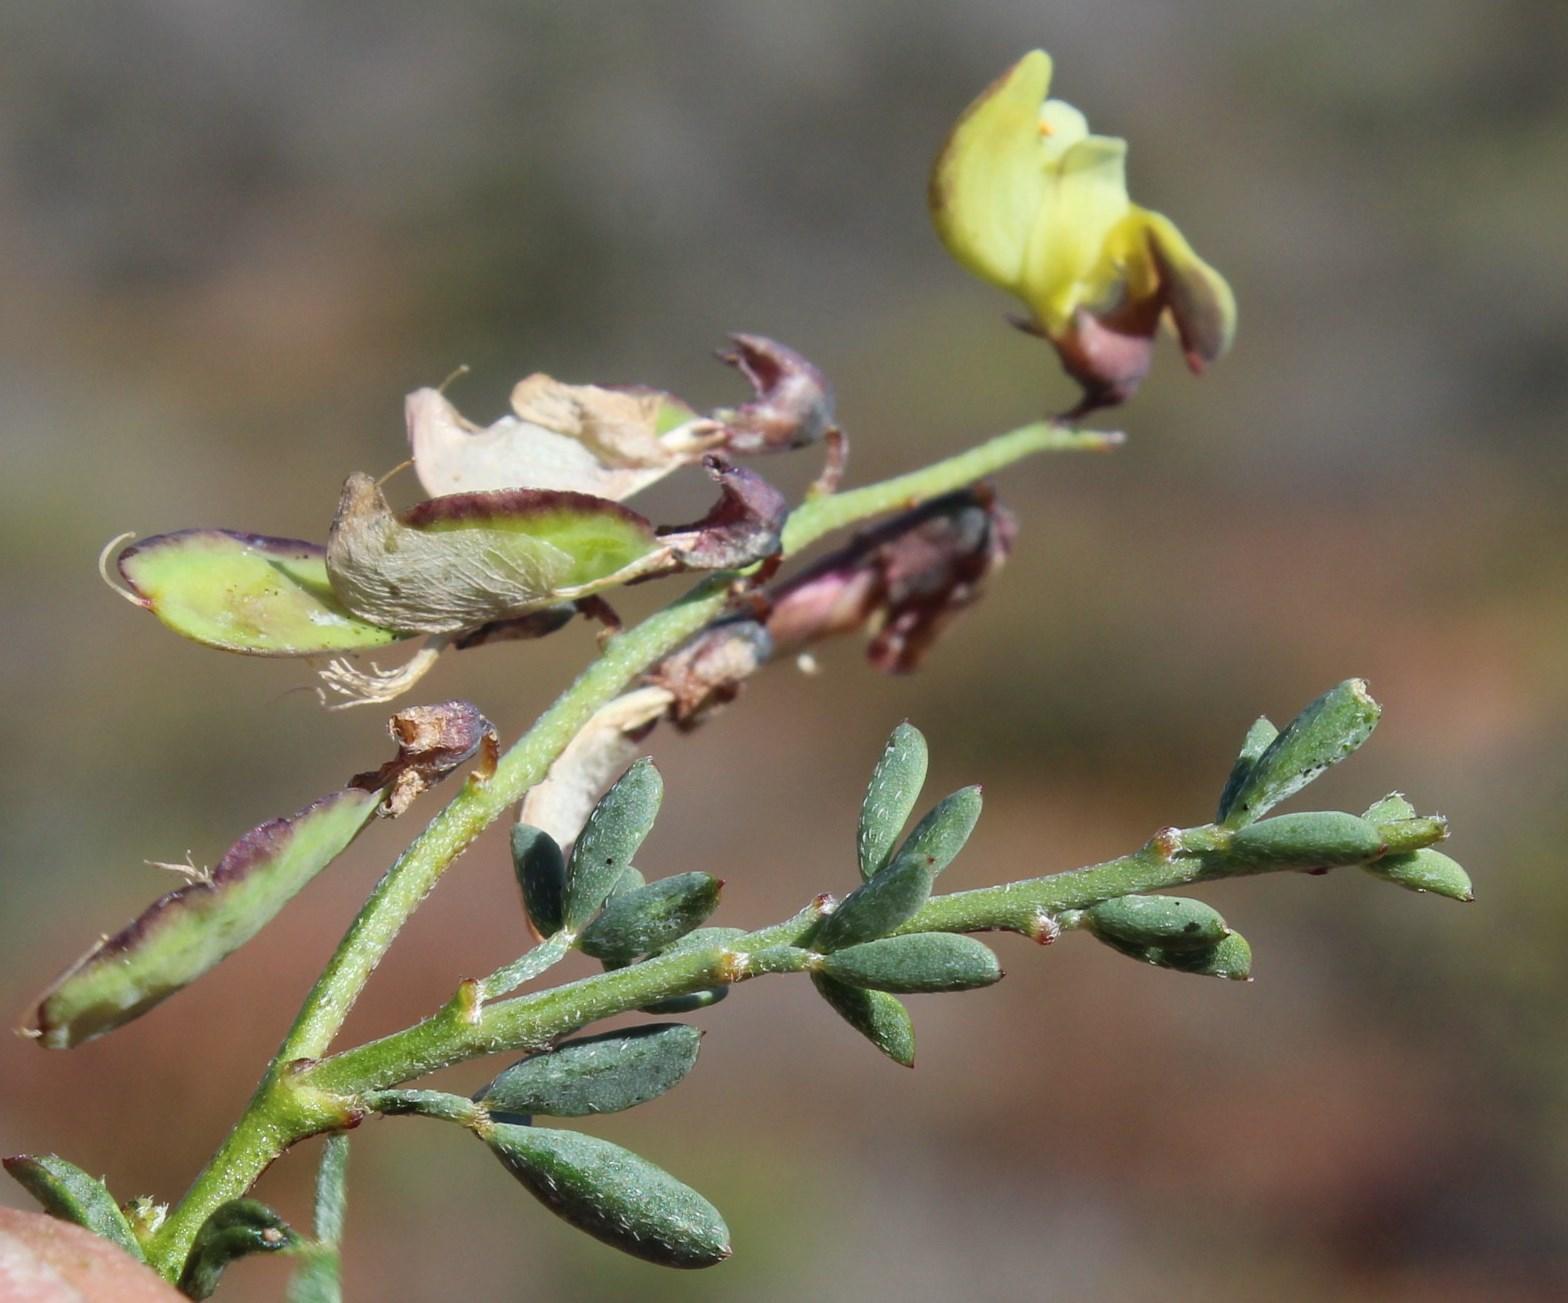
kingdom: Plantae
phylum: Tracheophyta
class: Magnoliopsida
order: Fabales
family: Fabaceae
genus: Wiborgia
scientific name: Wiborgia incurvata
